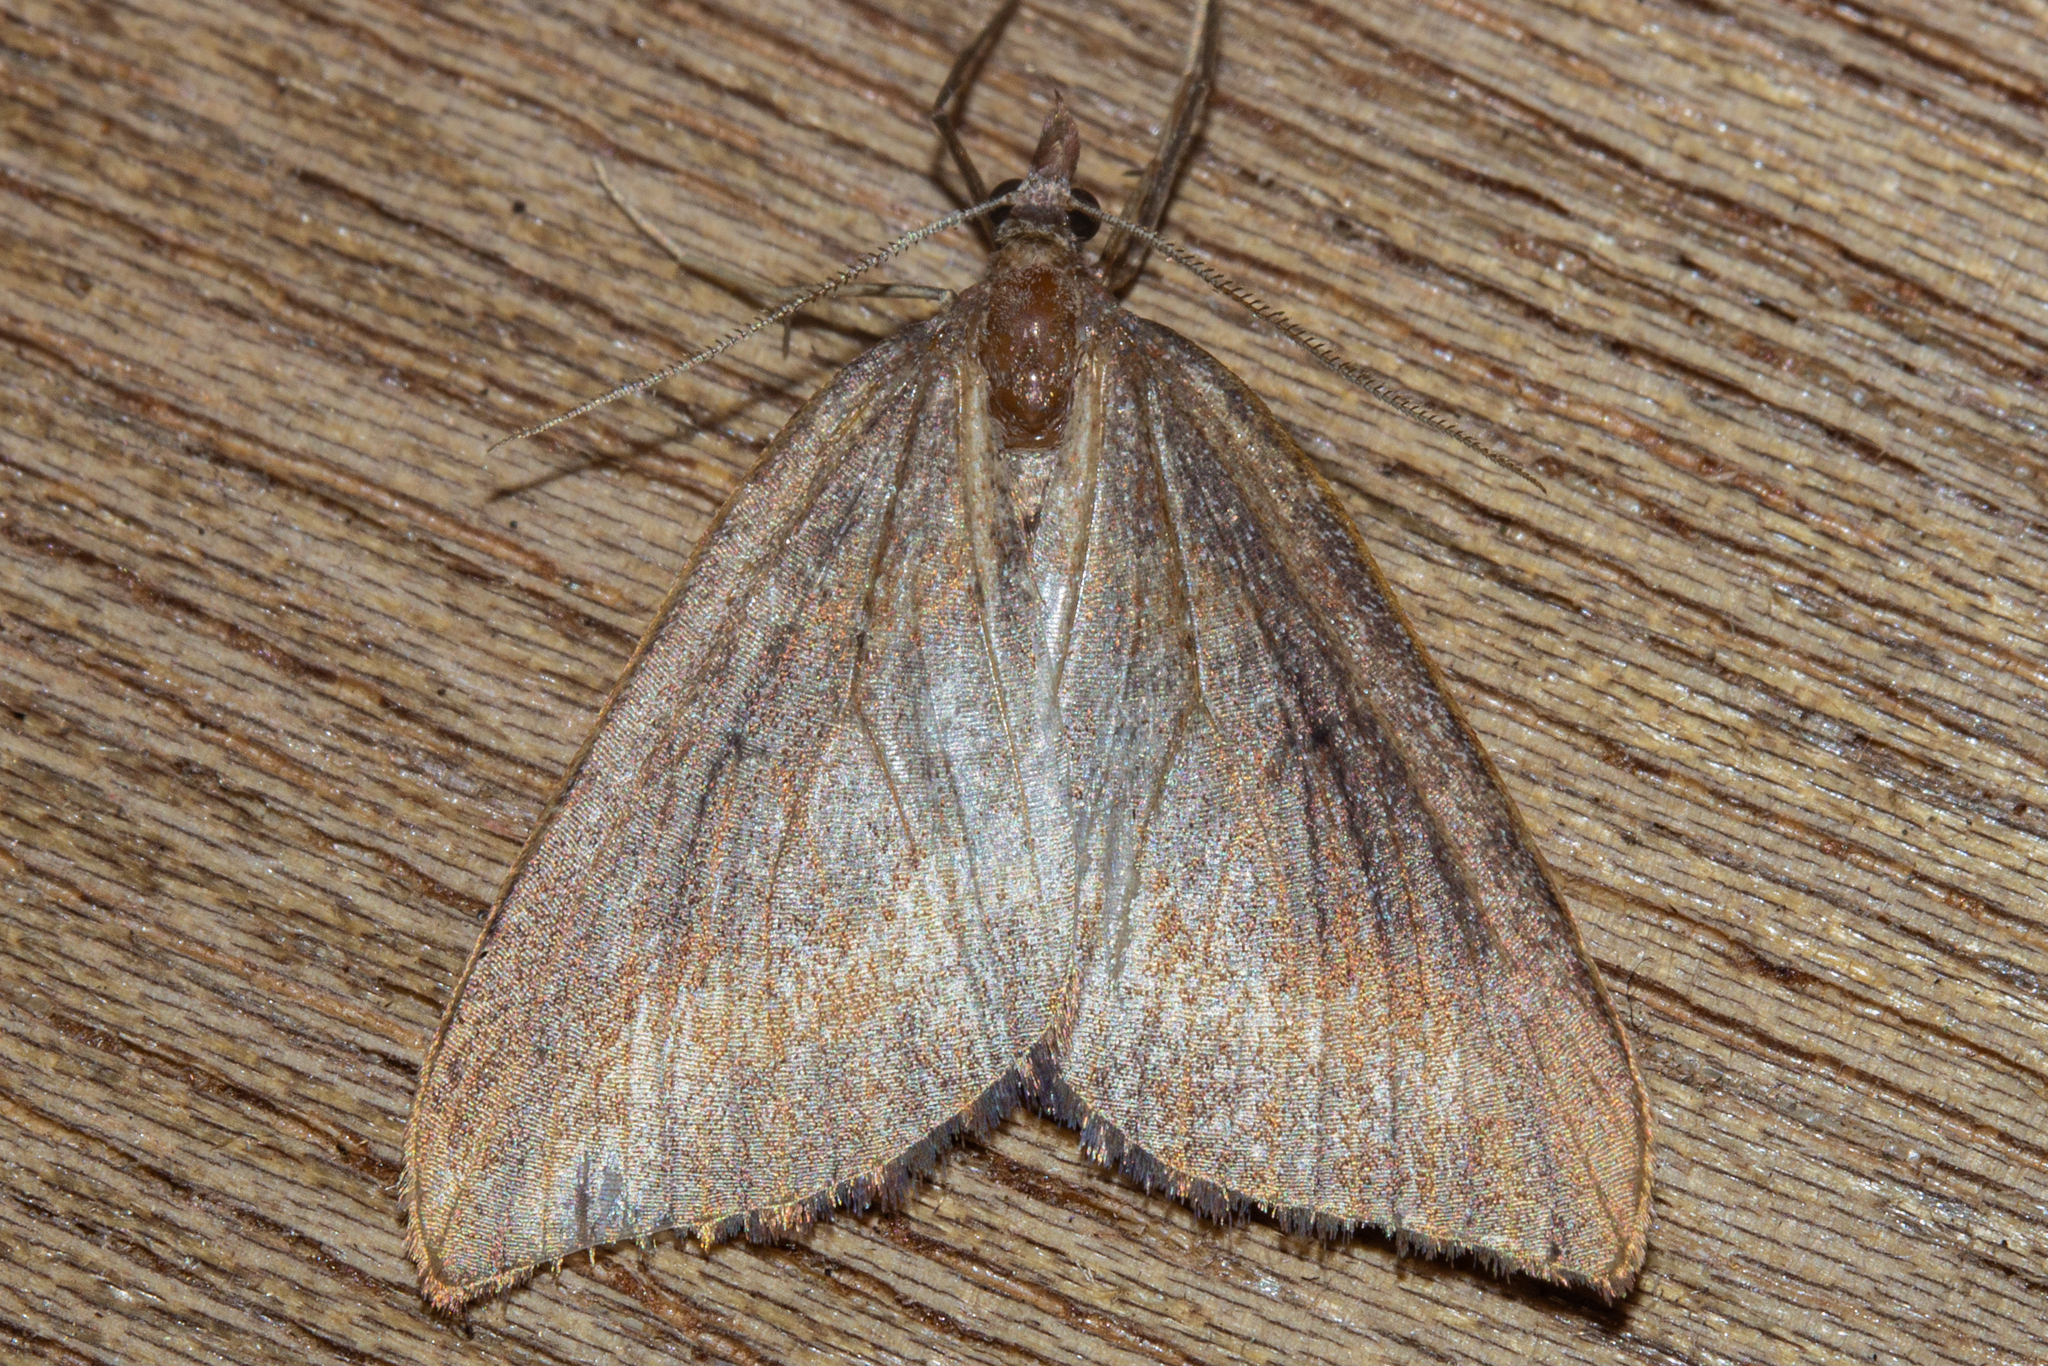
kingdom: Animalia
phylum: Arthropoda
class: Insecta
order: Lepidoptera
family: Geometridae
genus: Xanthorhoe
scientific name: Xanthorhoe occulta
